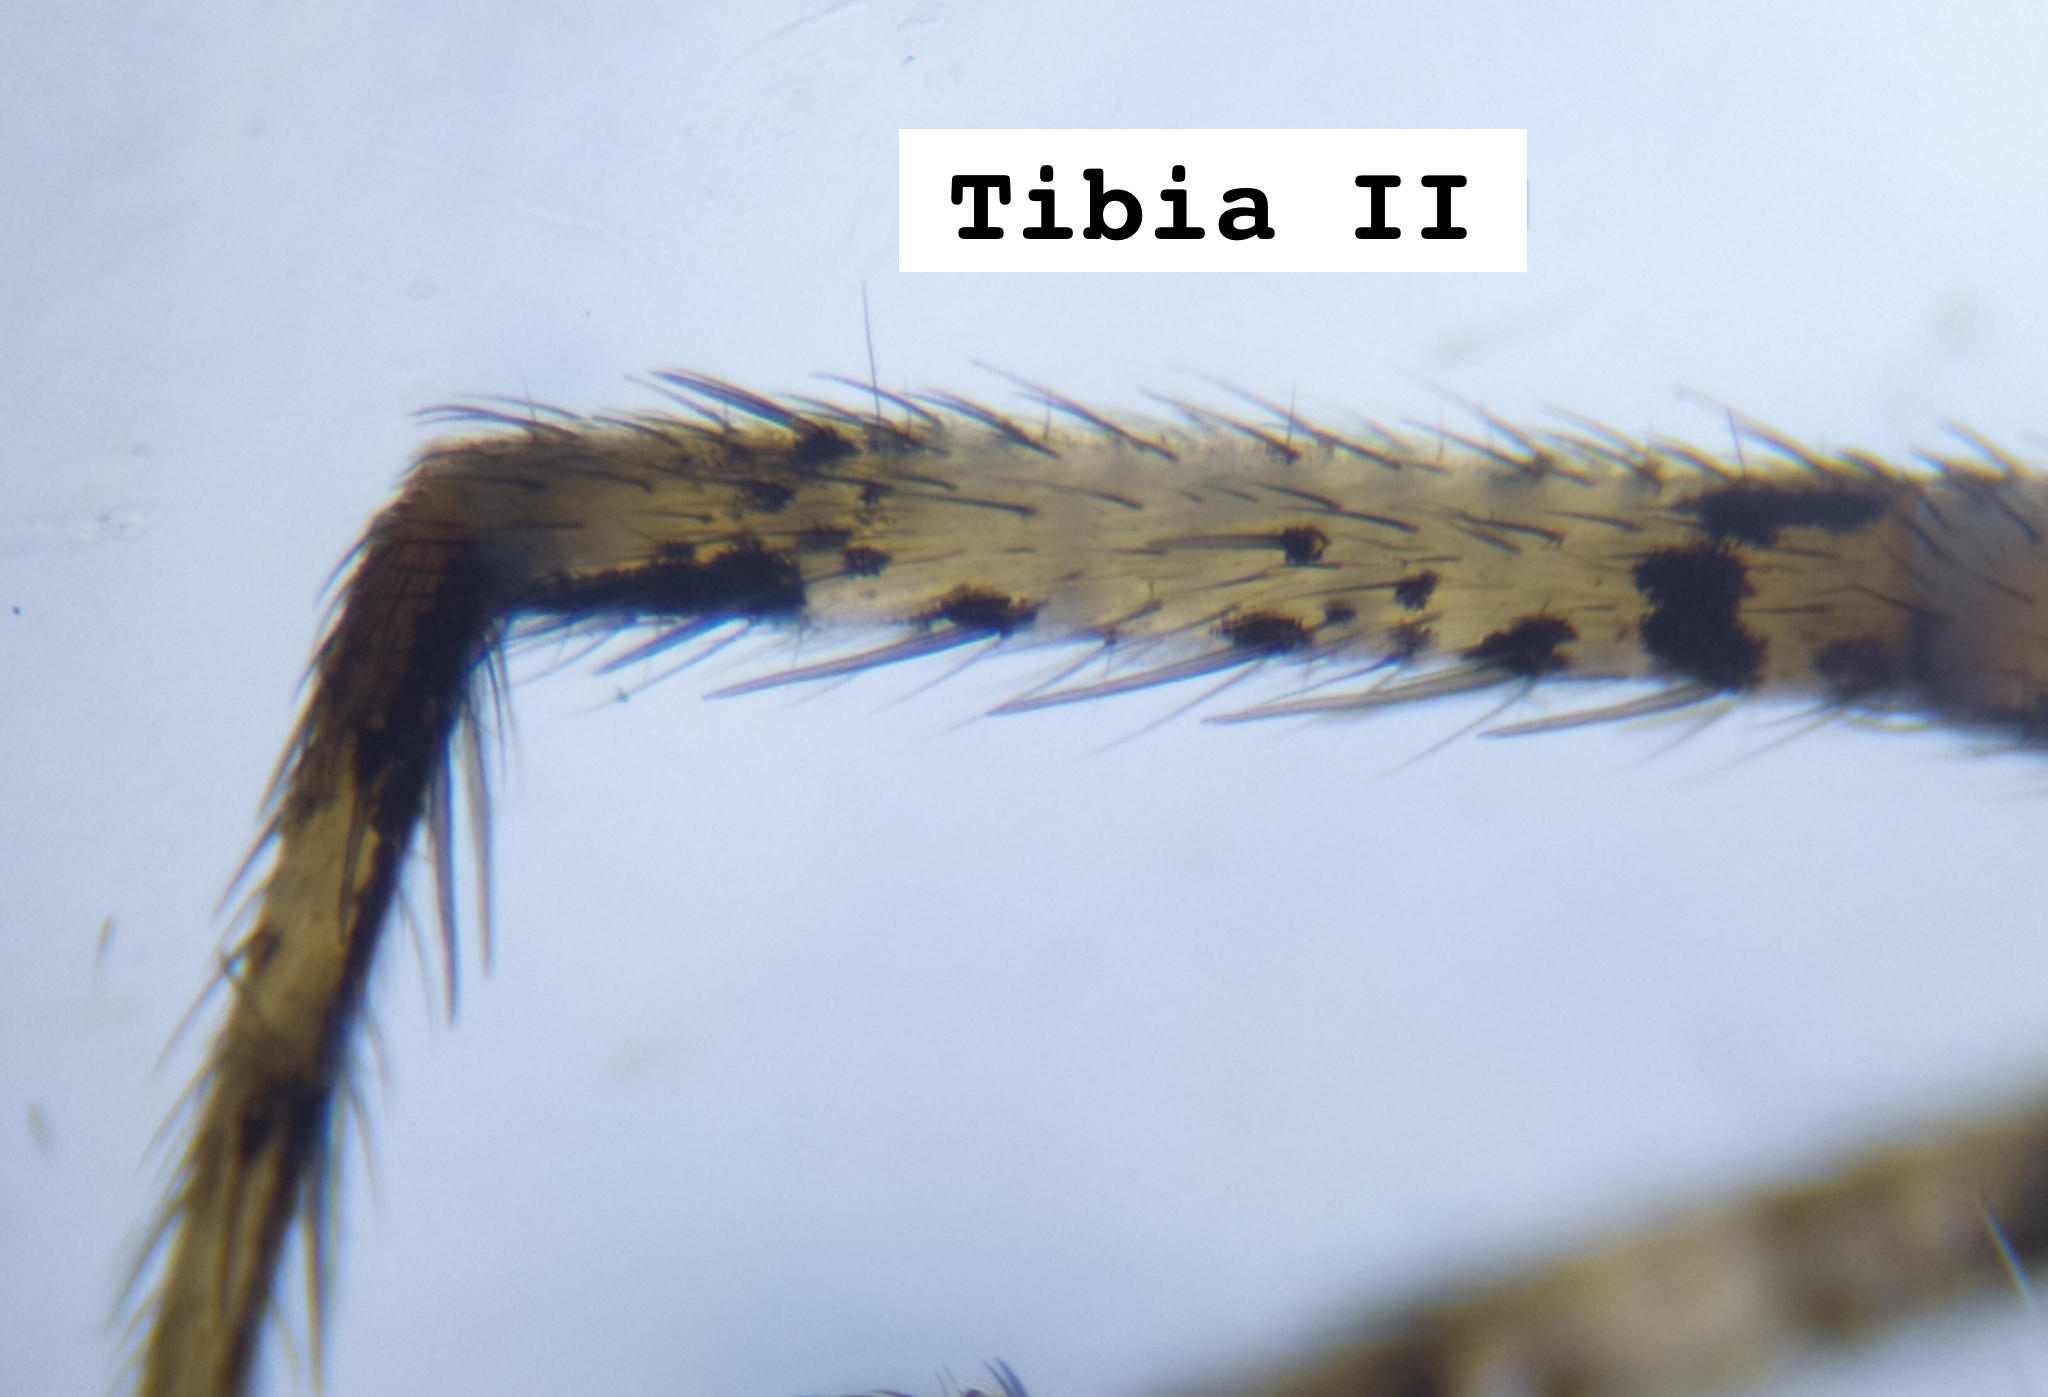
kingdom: Animalia
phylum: Arthropoda
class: Arachnida
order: Araneae
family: Philodromidae
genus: Philodromus
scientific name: Philodromus poecilus
